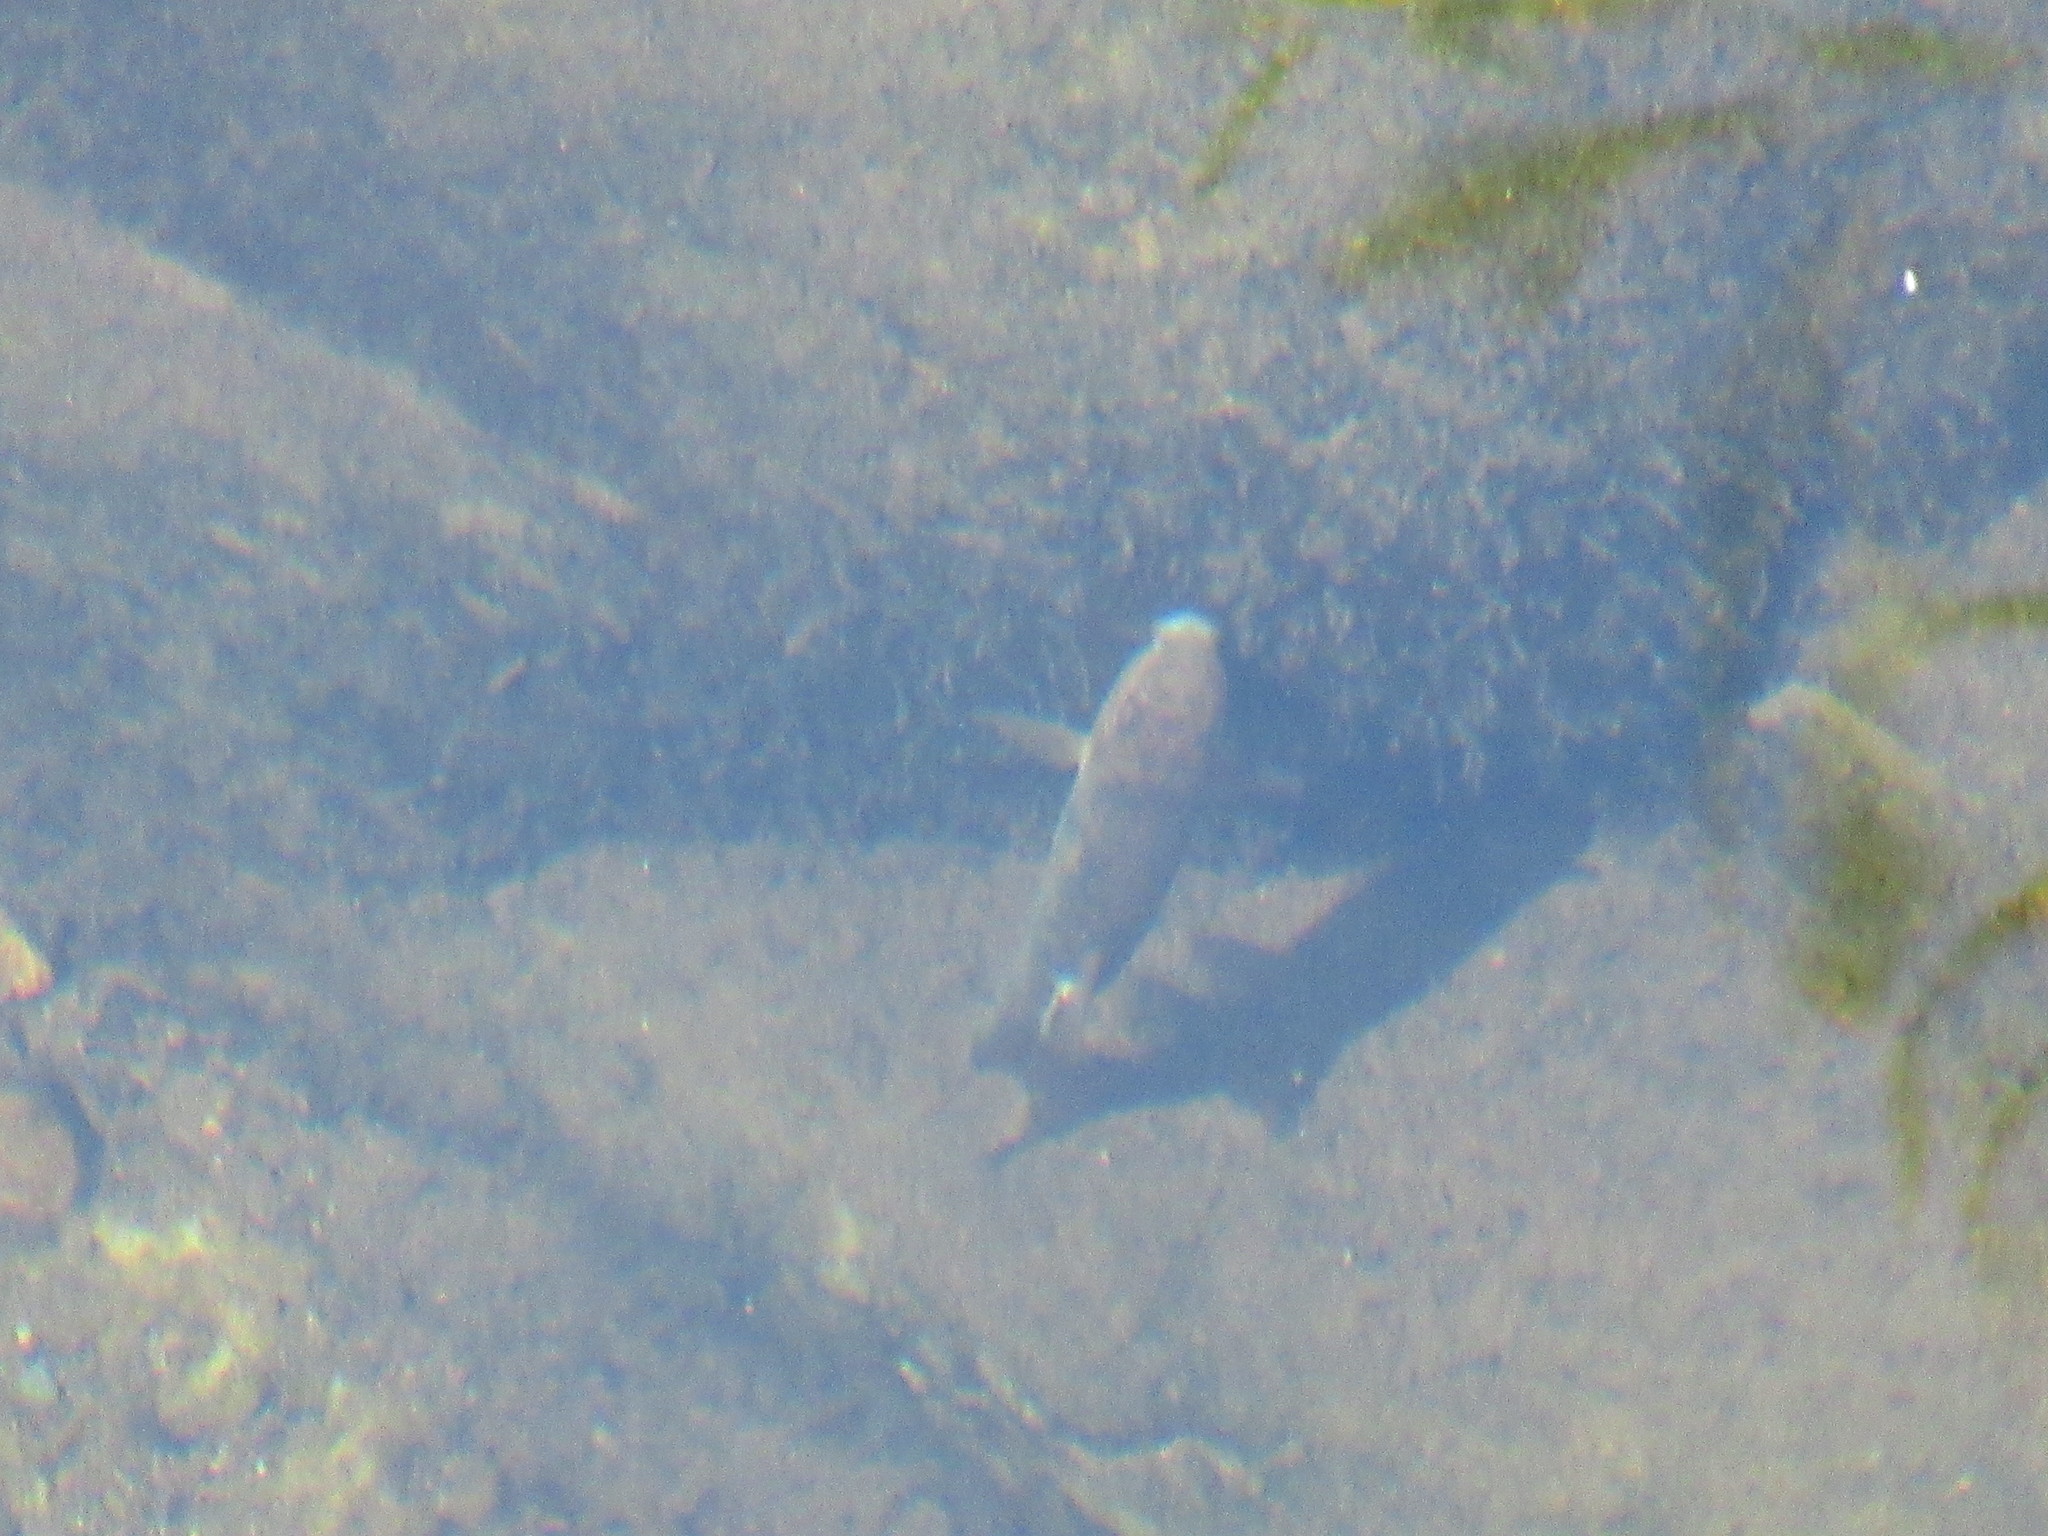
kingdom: Animalia
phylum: Chordata
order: Cypriniformes
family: Catostomidae
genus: Catostomus
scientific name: Catostomus occidentalis
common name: Goose lake sucker
